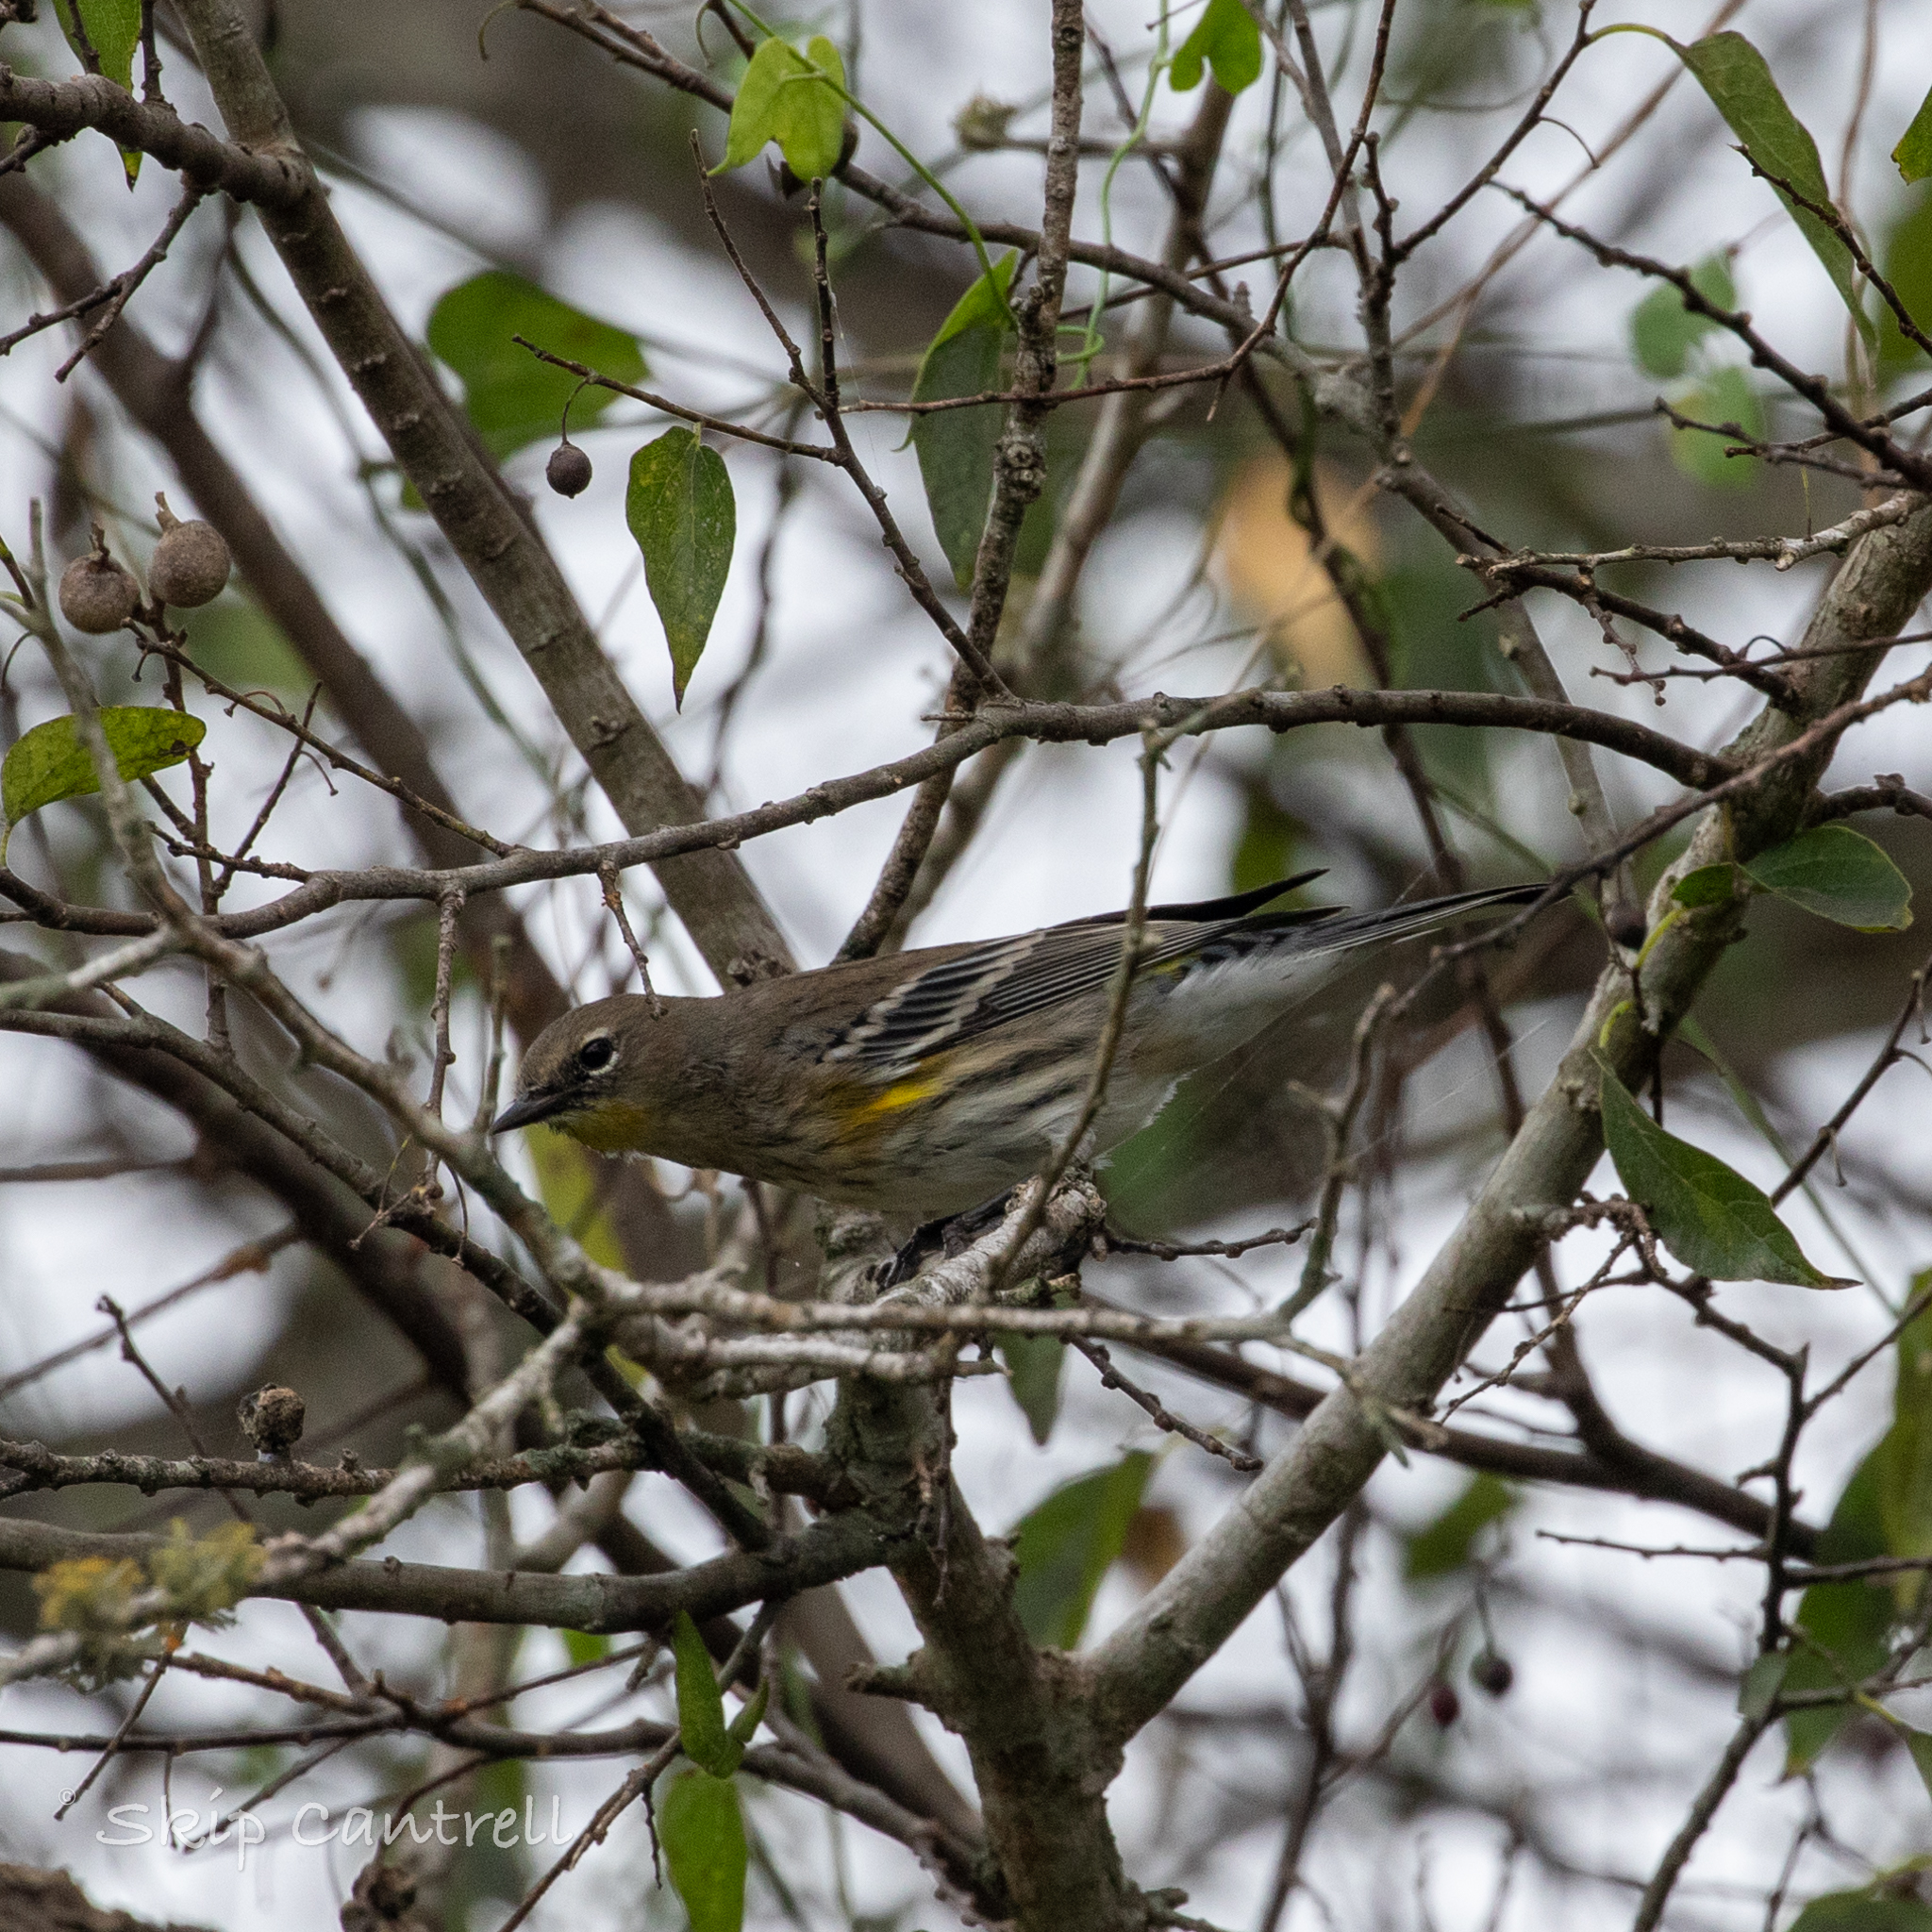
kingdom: Animalia
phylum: Chordata
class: Aves
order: Passeriformes
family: Parulidae
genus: Setophaga
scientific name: Setophaga coronata
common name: Myrtle warbler
